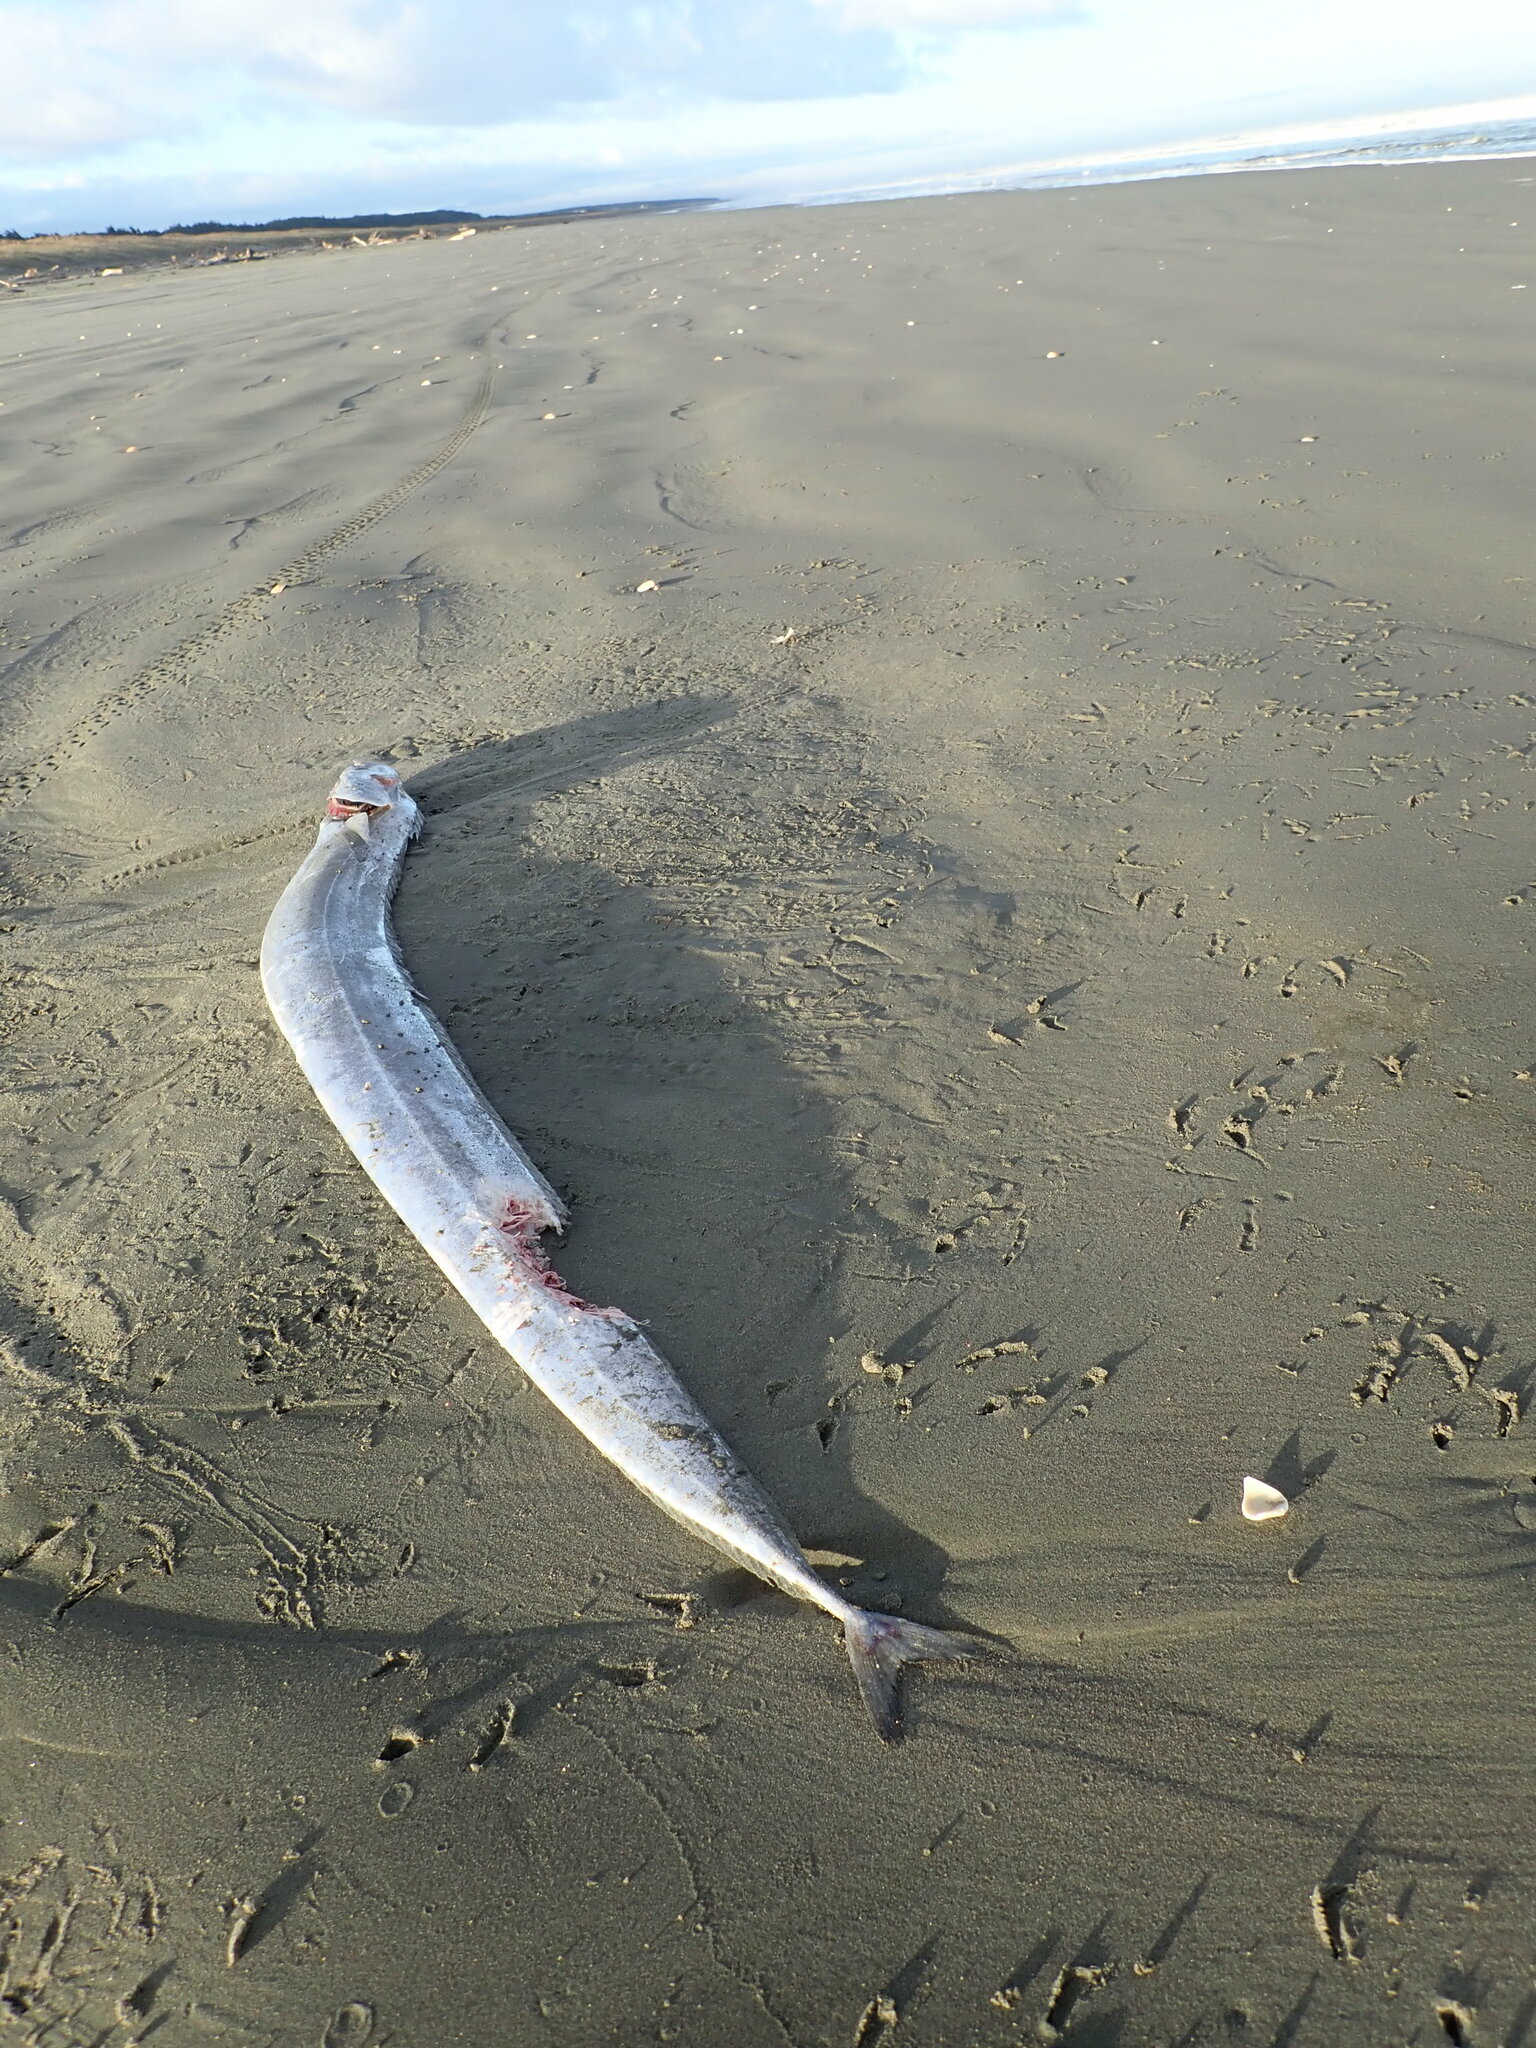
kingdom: Animalia
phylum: Chordata
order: Perciformes
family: Trichiuridae
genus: Lepidopus
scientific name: Lepidopus caudatus
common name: Silver scabbardfish
